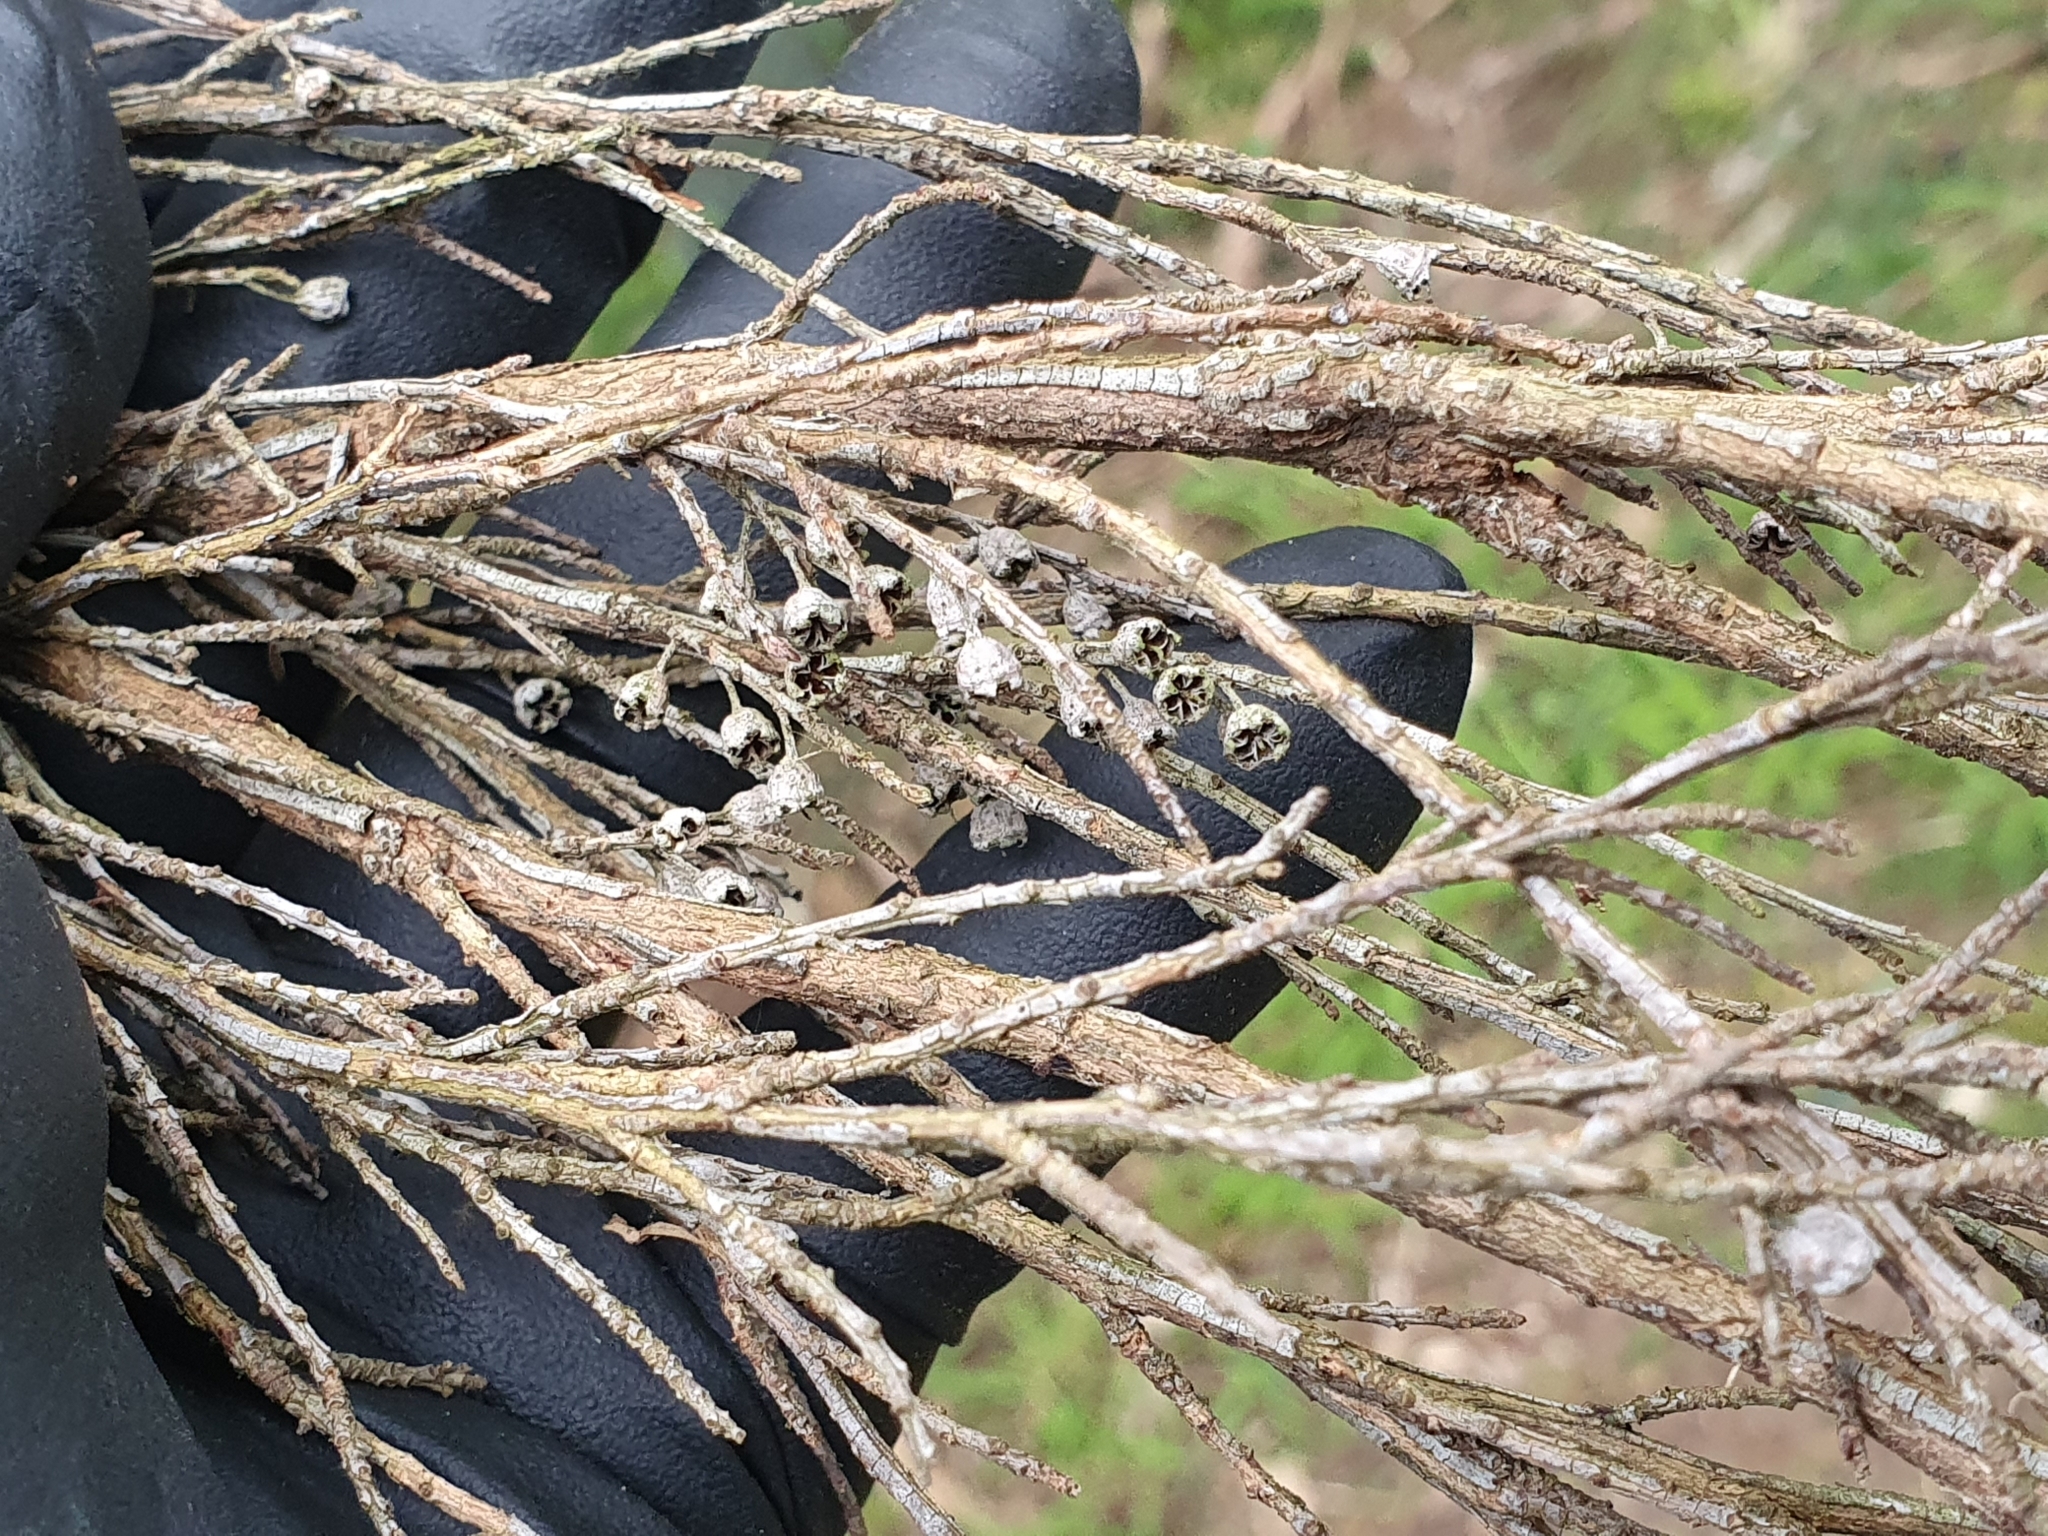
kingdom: Plantae
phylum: Tracheophyta
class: Magnoliopsida
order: Myrtales
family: Myrtaceae
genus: Leptospermum
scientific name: Leptospermum scoparium
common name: Broom tea-tree
